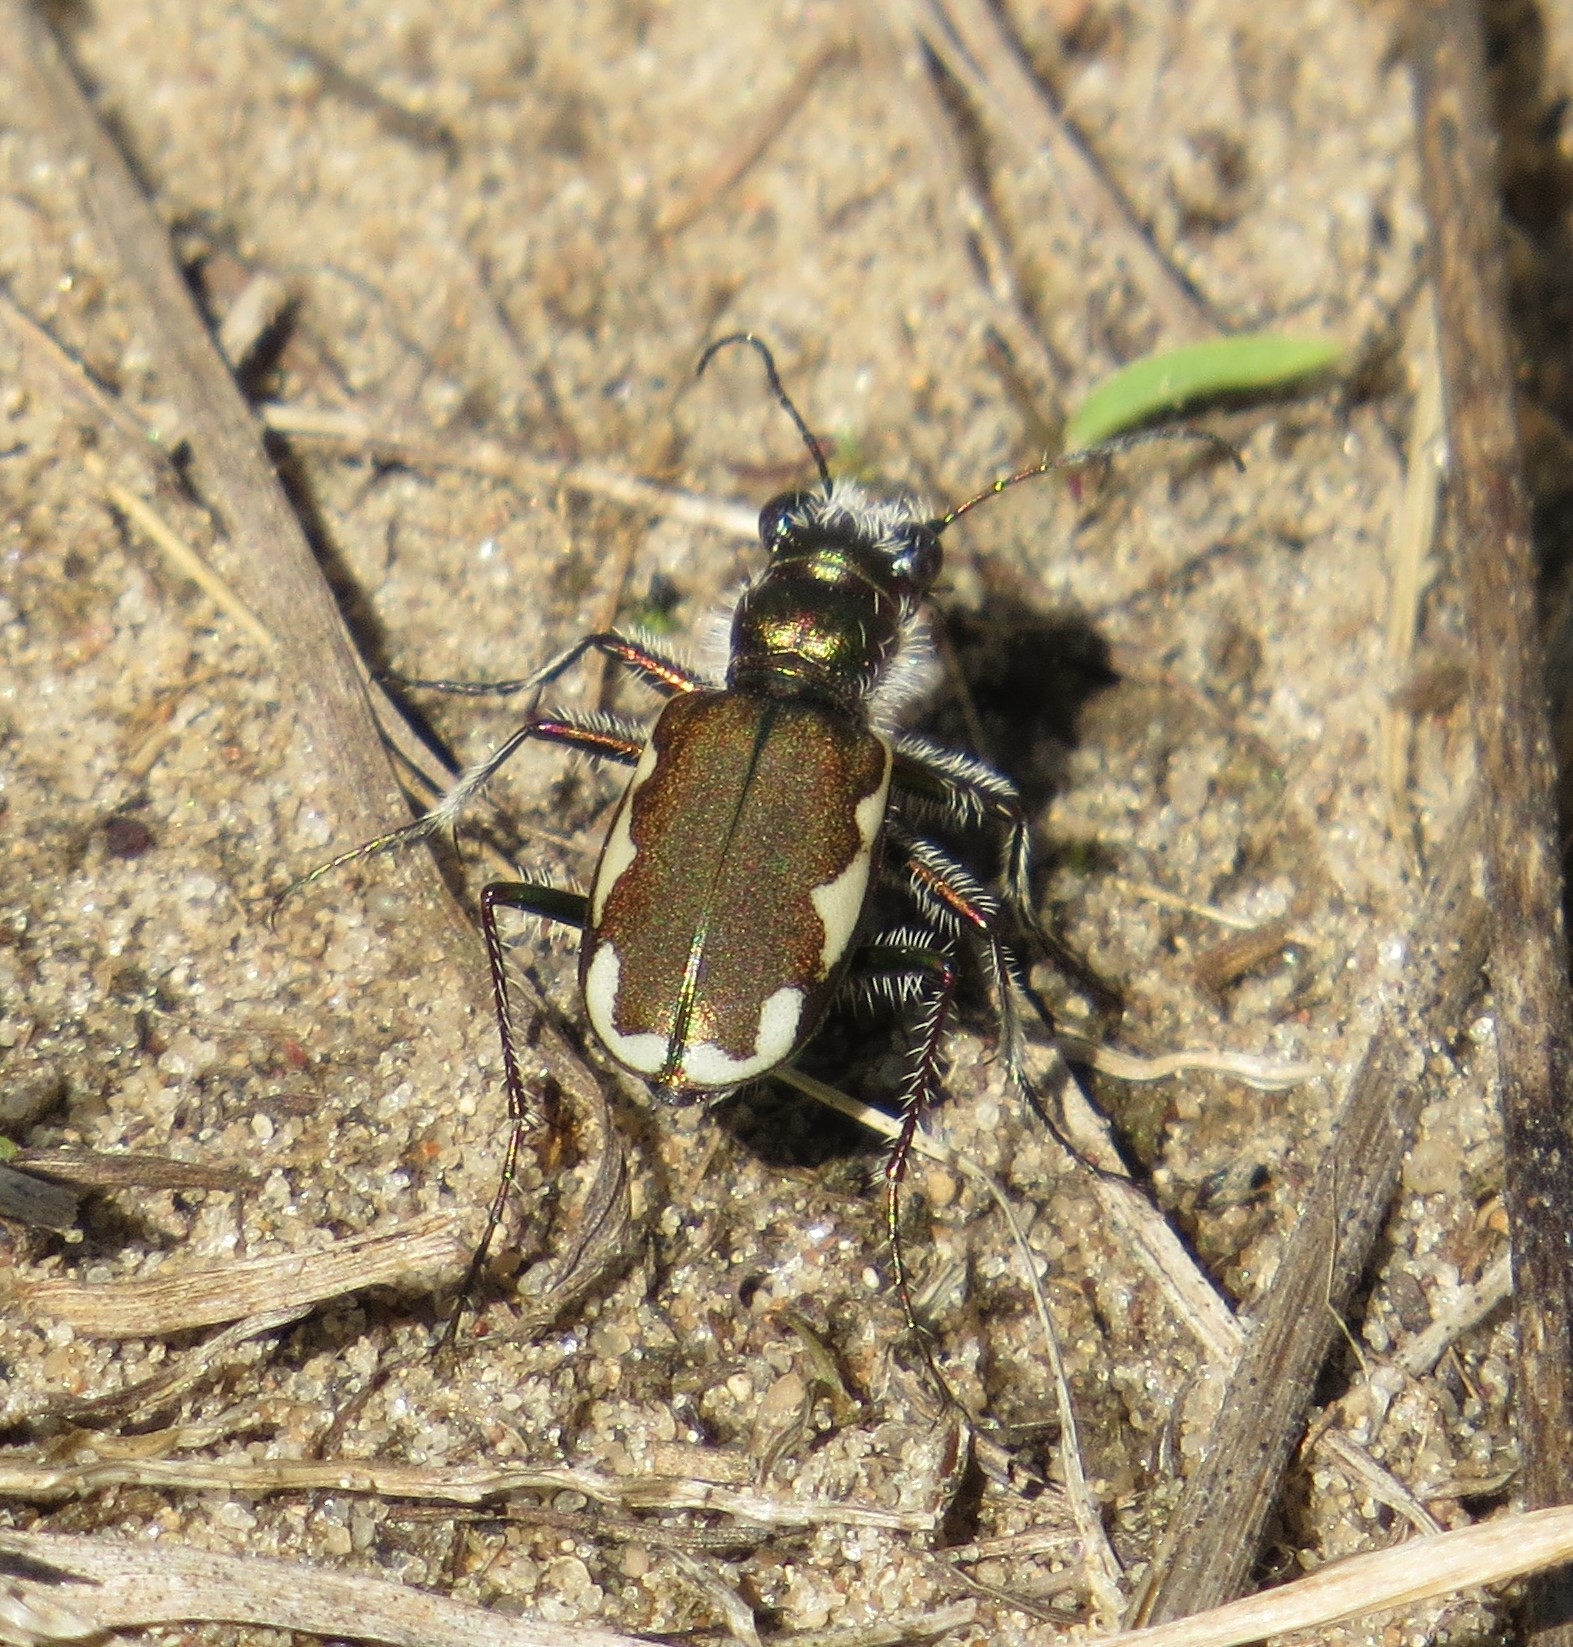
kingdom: Animalia
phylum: Arthropoda
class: Insecta
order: Coleoptera
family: Carabidae
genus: Cicindela
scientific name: Cicindela scutellaris
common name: Festive tiger beetle
